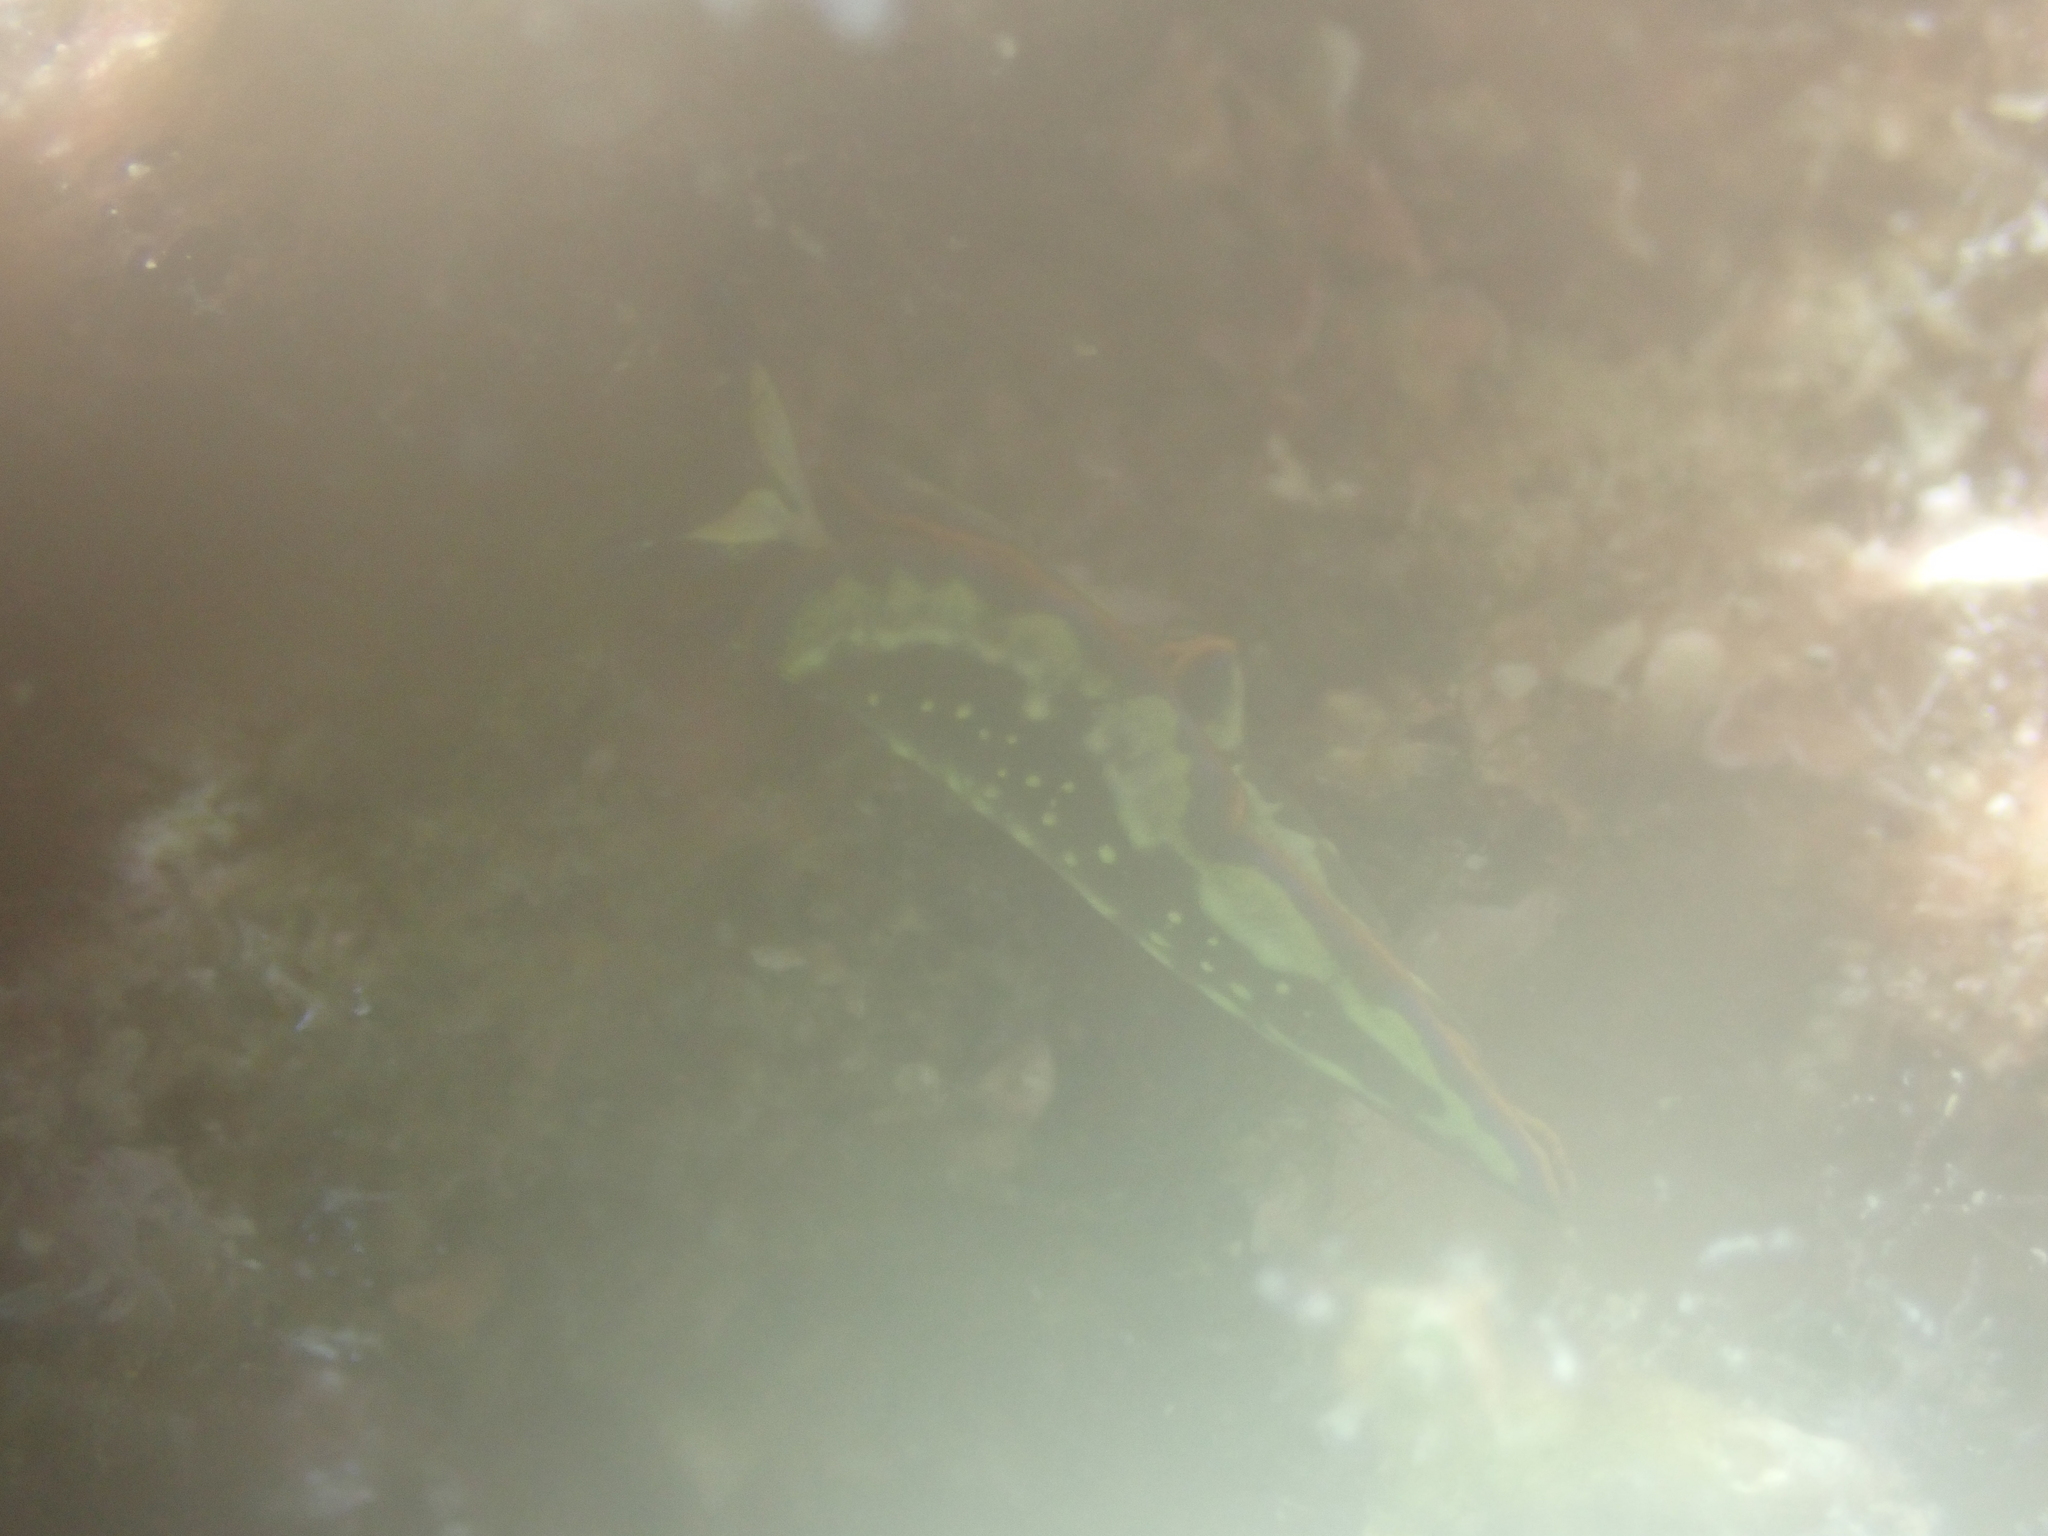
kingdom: Animalia
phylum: Mollusca
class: Gastropoda
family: Plakobranchidae
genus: Thuridilla
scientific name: Thuridilla hopei
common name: Splendid elysia
